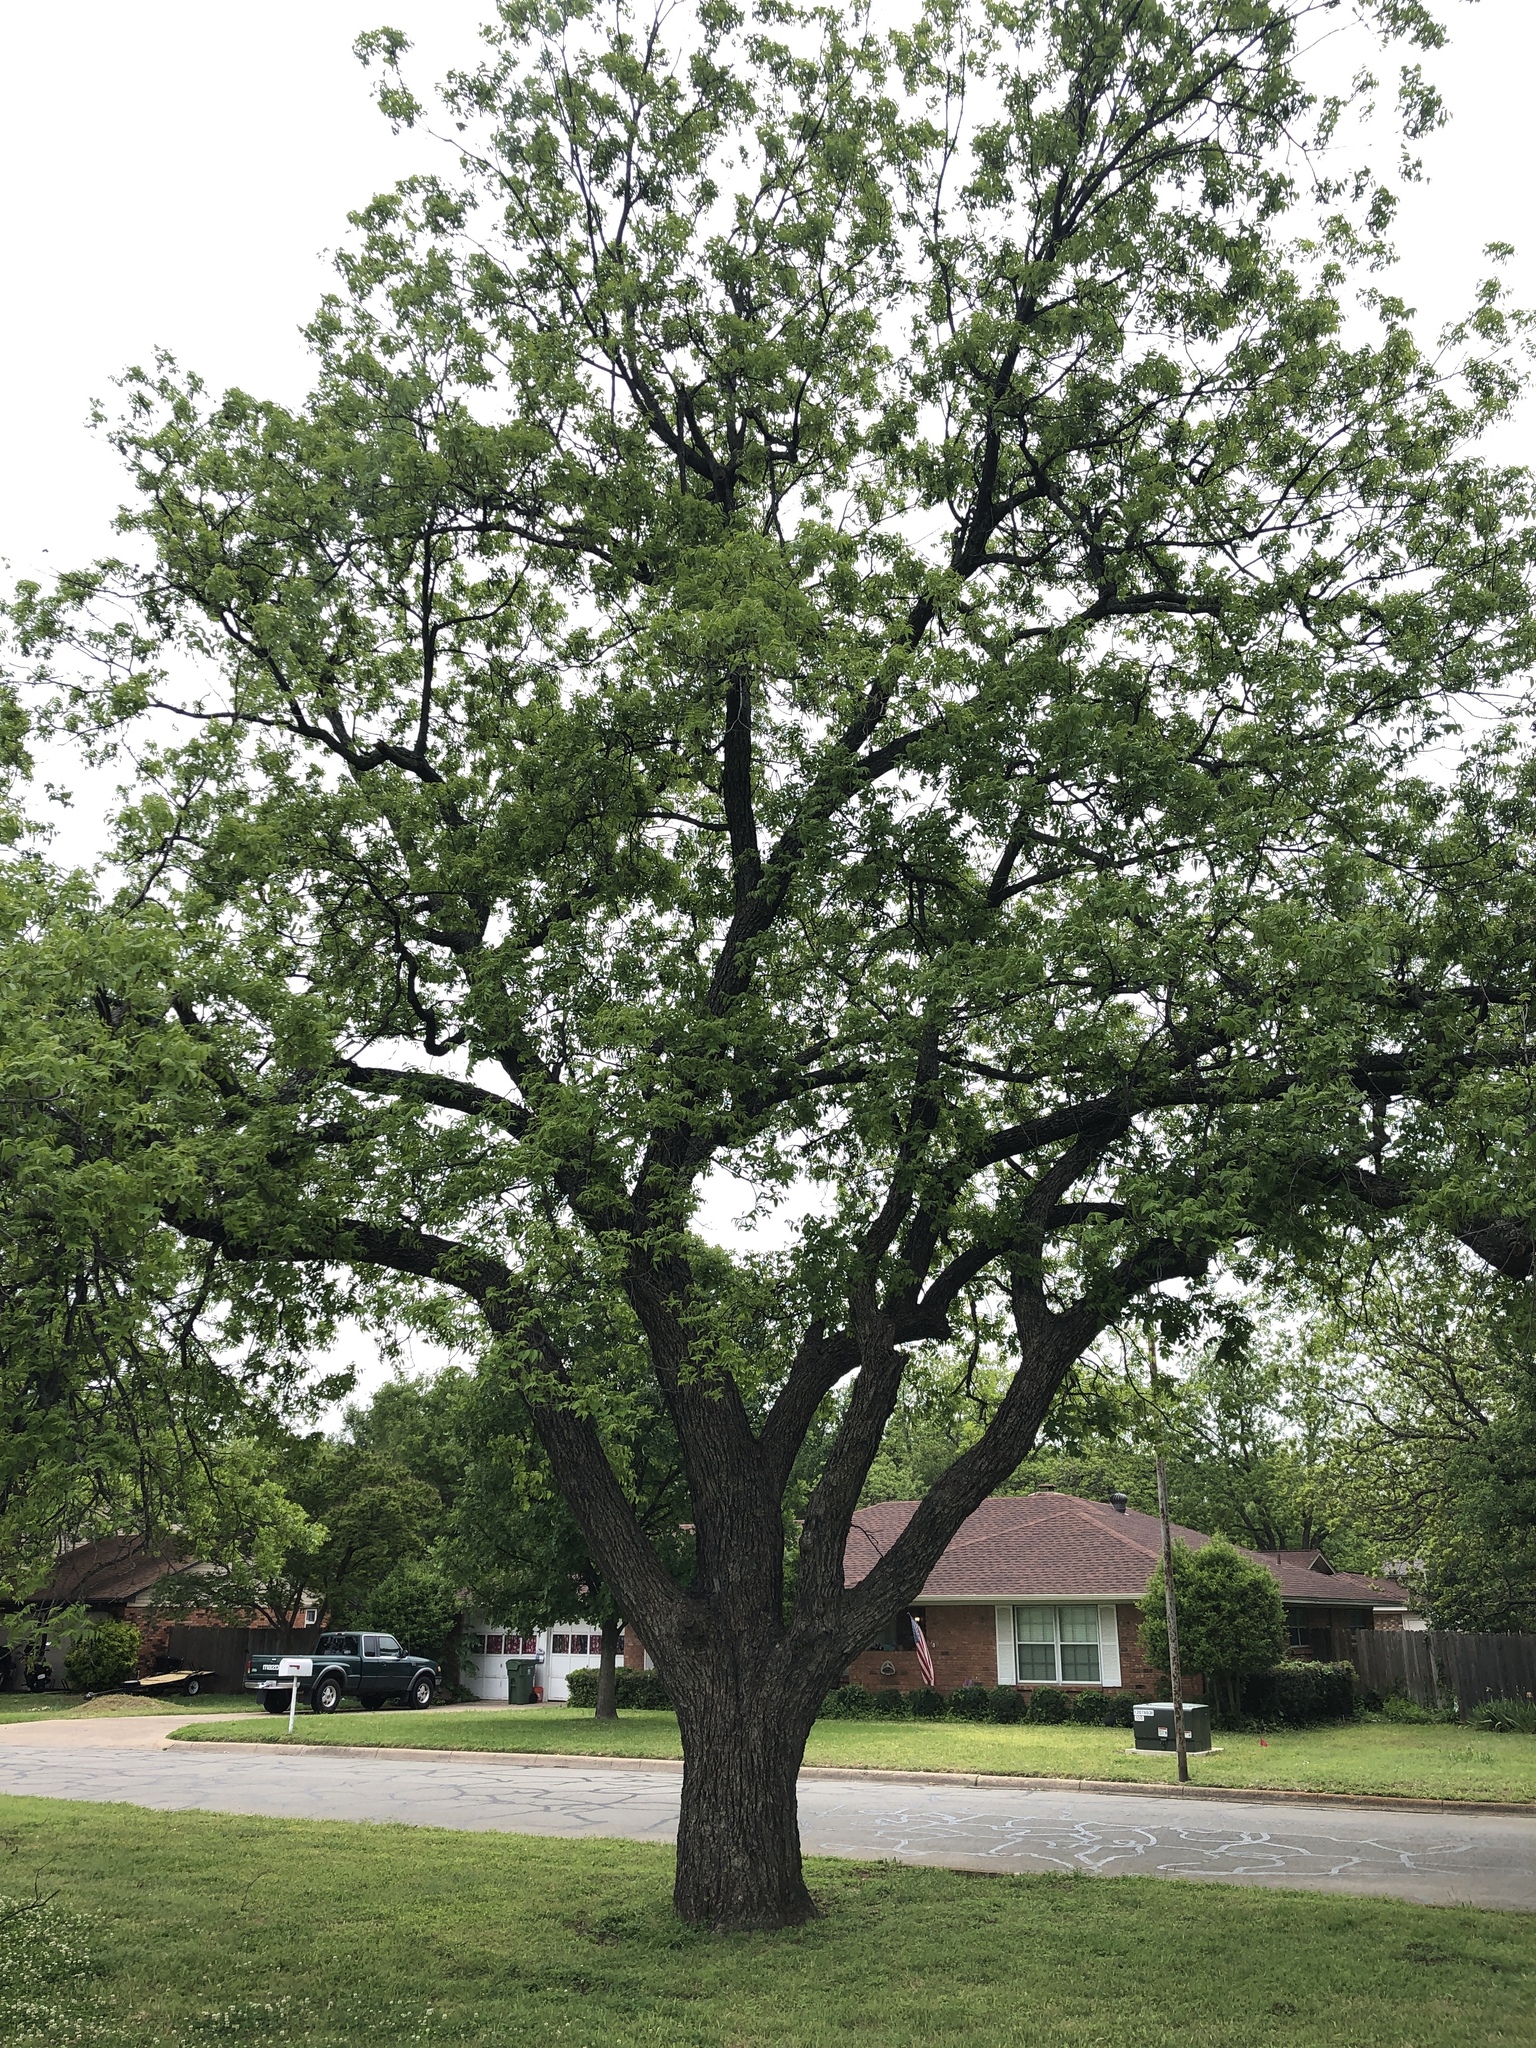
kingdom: Plantae
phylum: Tracheophyta
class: Magnoliopsida
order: Fagales
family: Juglandaceae
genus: Carya
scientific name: Carya illinoinensis
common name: Pecan
